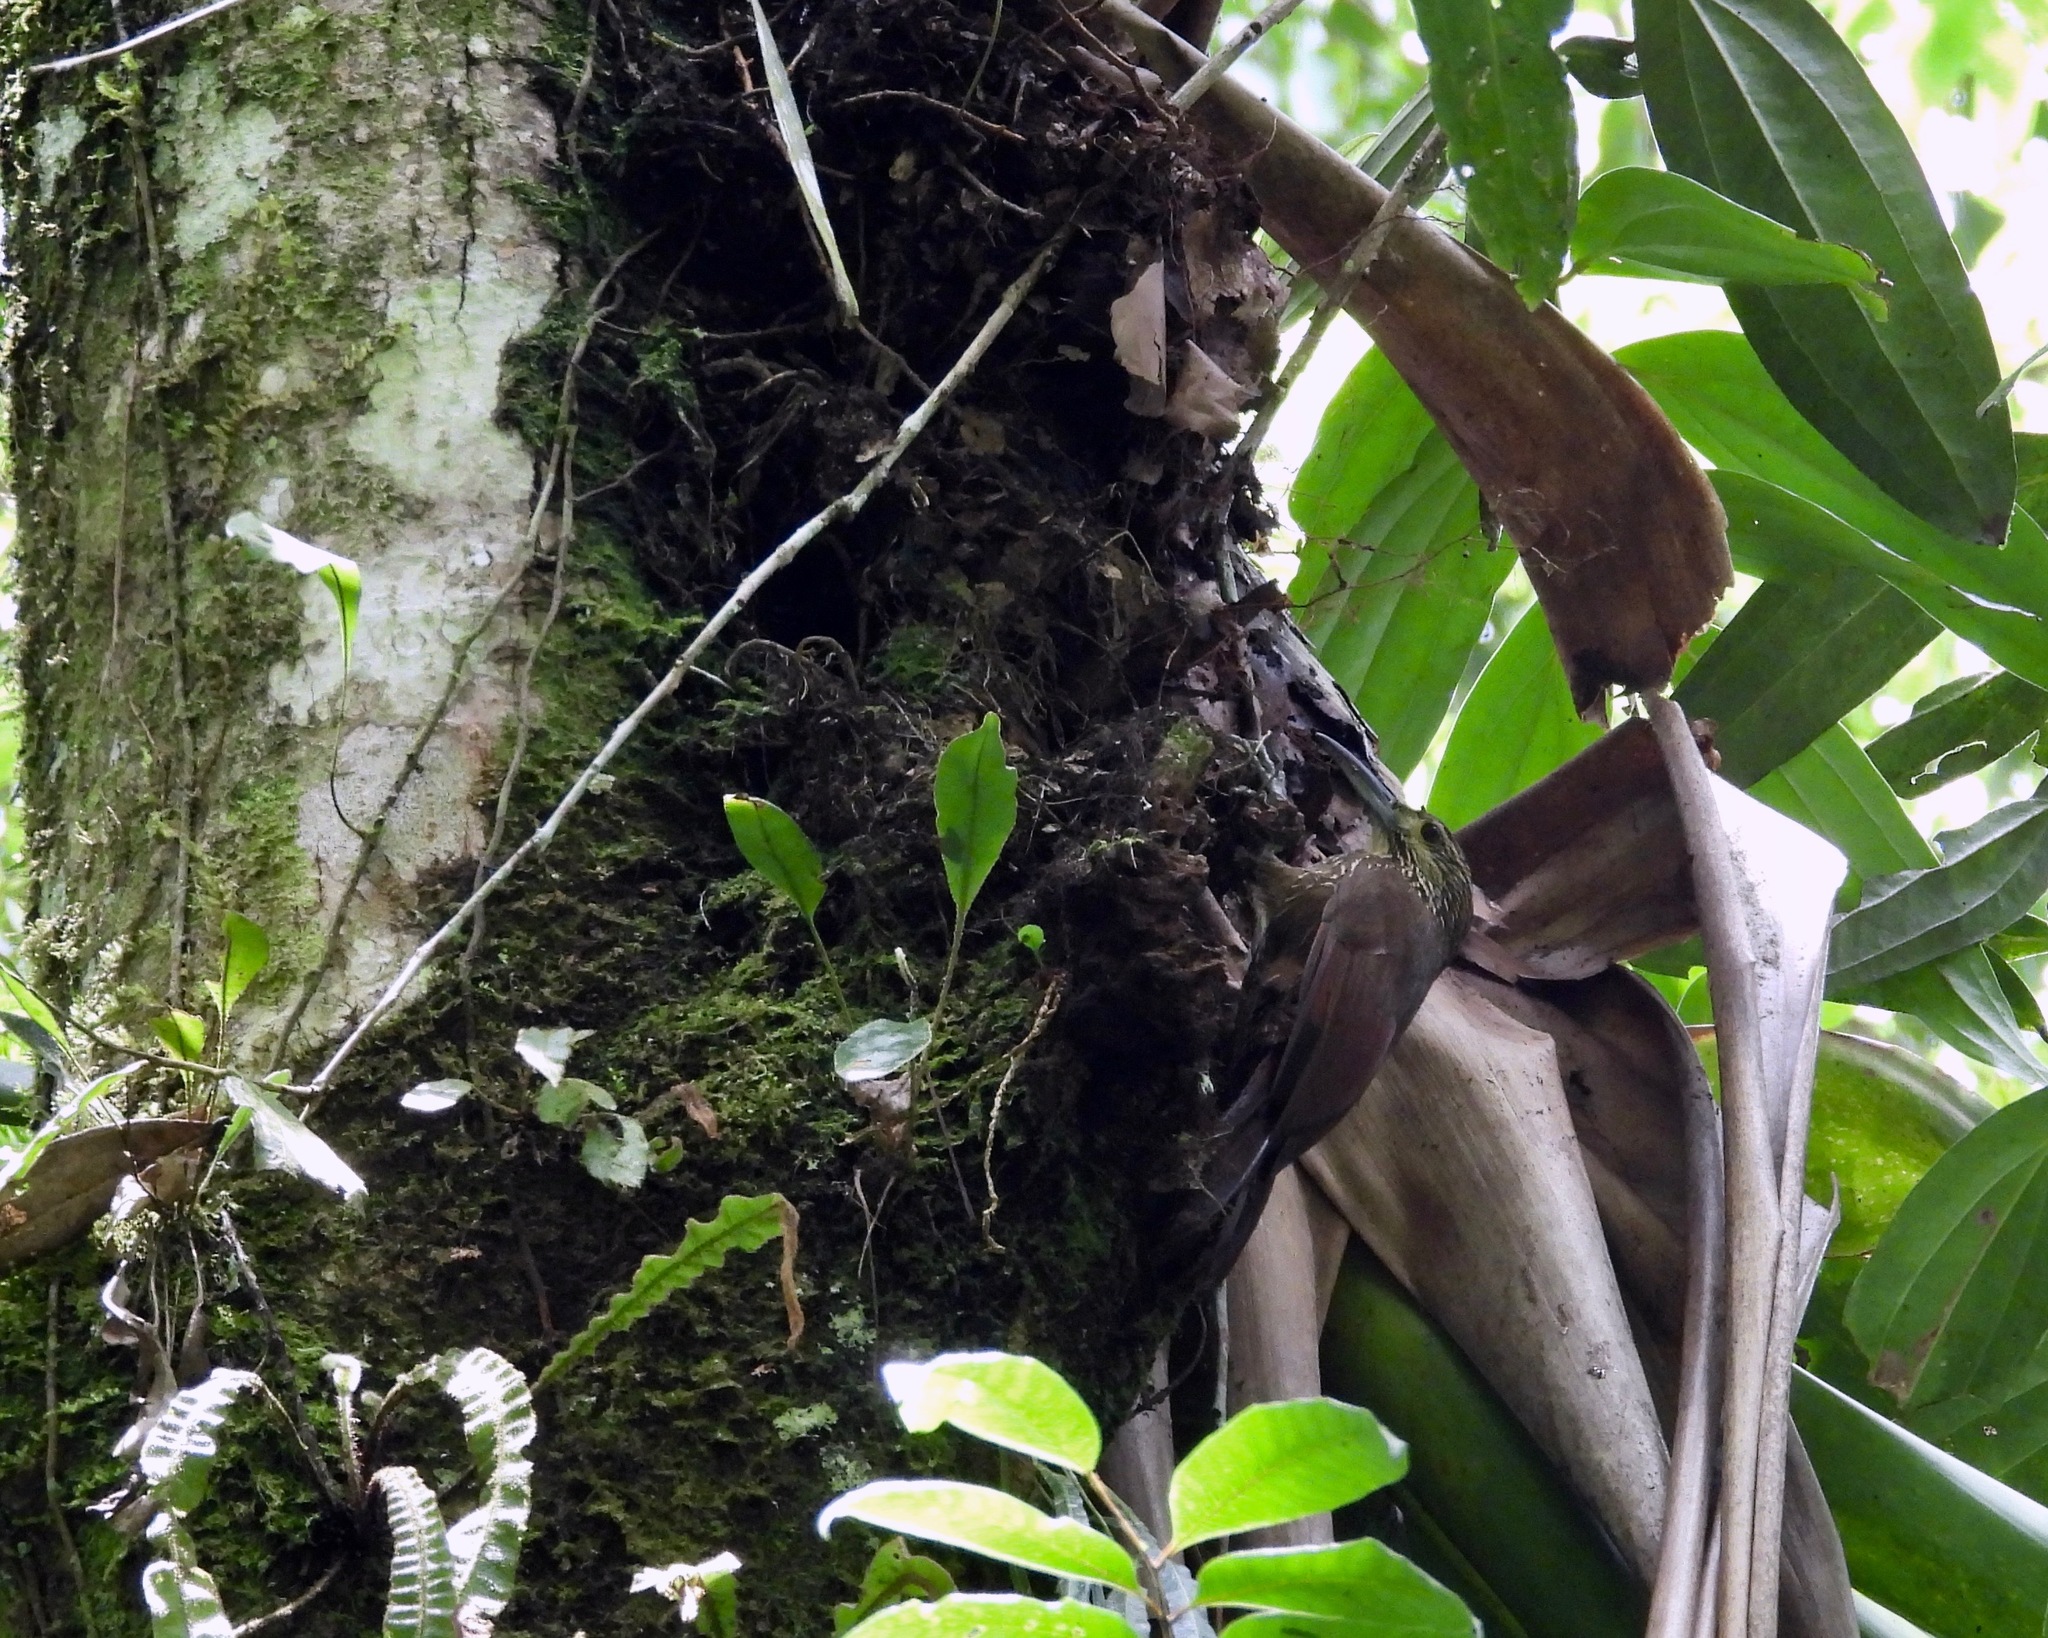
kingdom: Animalia
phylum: Chordata
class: Aves
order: Passeriformes
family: Furnariidae
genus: Xiphocolaptes
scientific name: Xiphocolaptes promeropirhynchus
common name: Strong-billed woodcreeper
